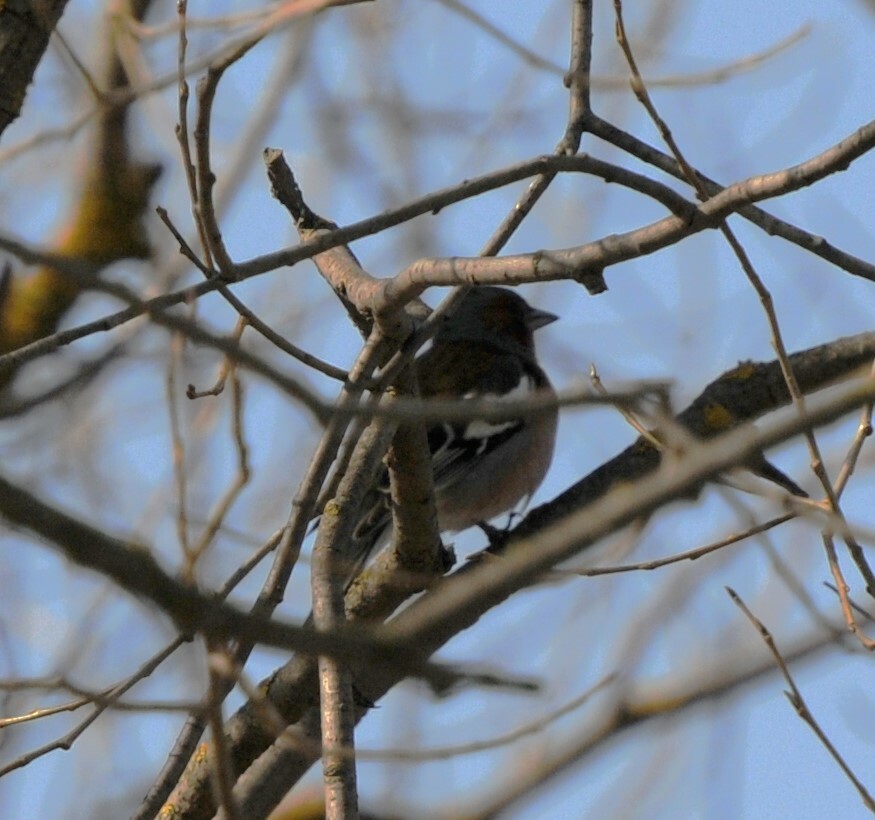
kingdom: Animalia
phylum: Chordata
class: Aves
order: Passeriformes
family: Fringillidae
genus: Fringilla
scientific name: Fringilla coelebs
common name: Common chaffinch
